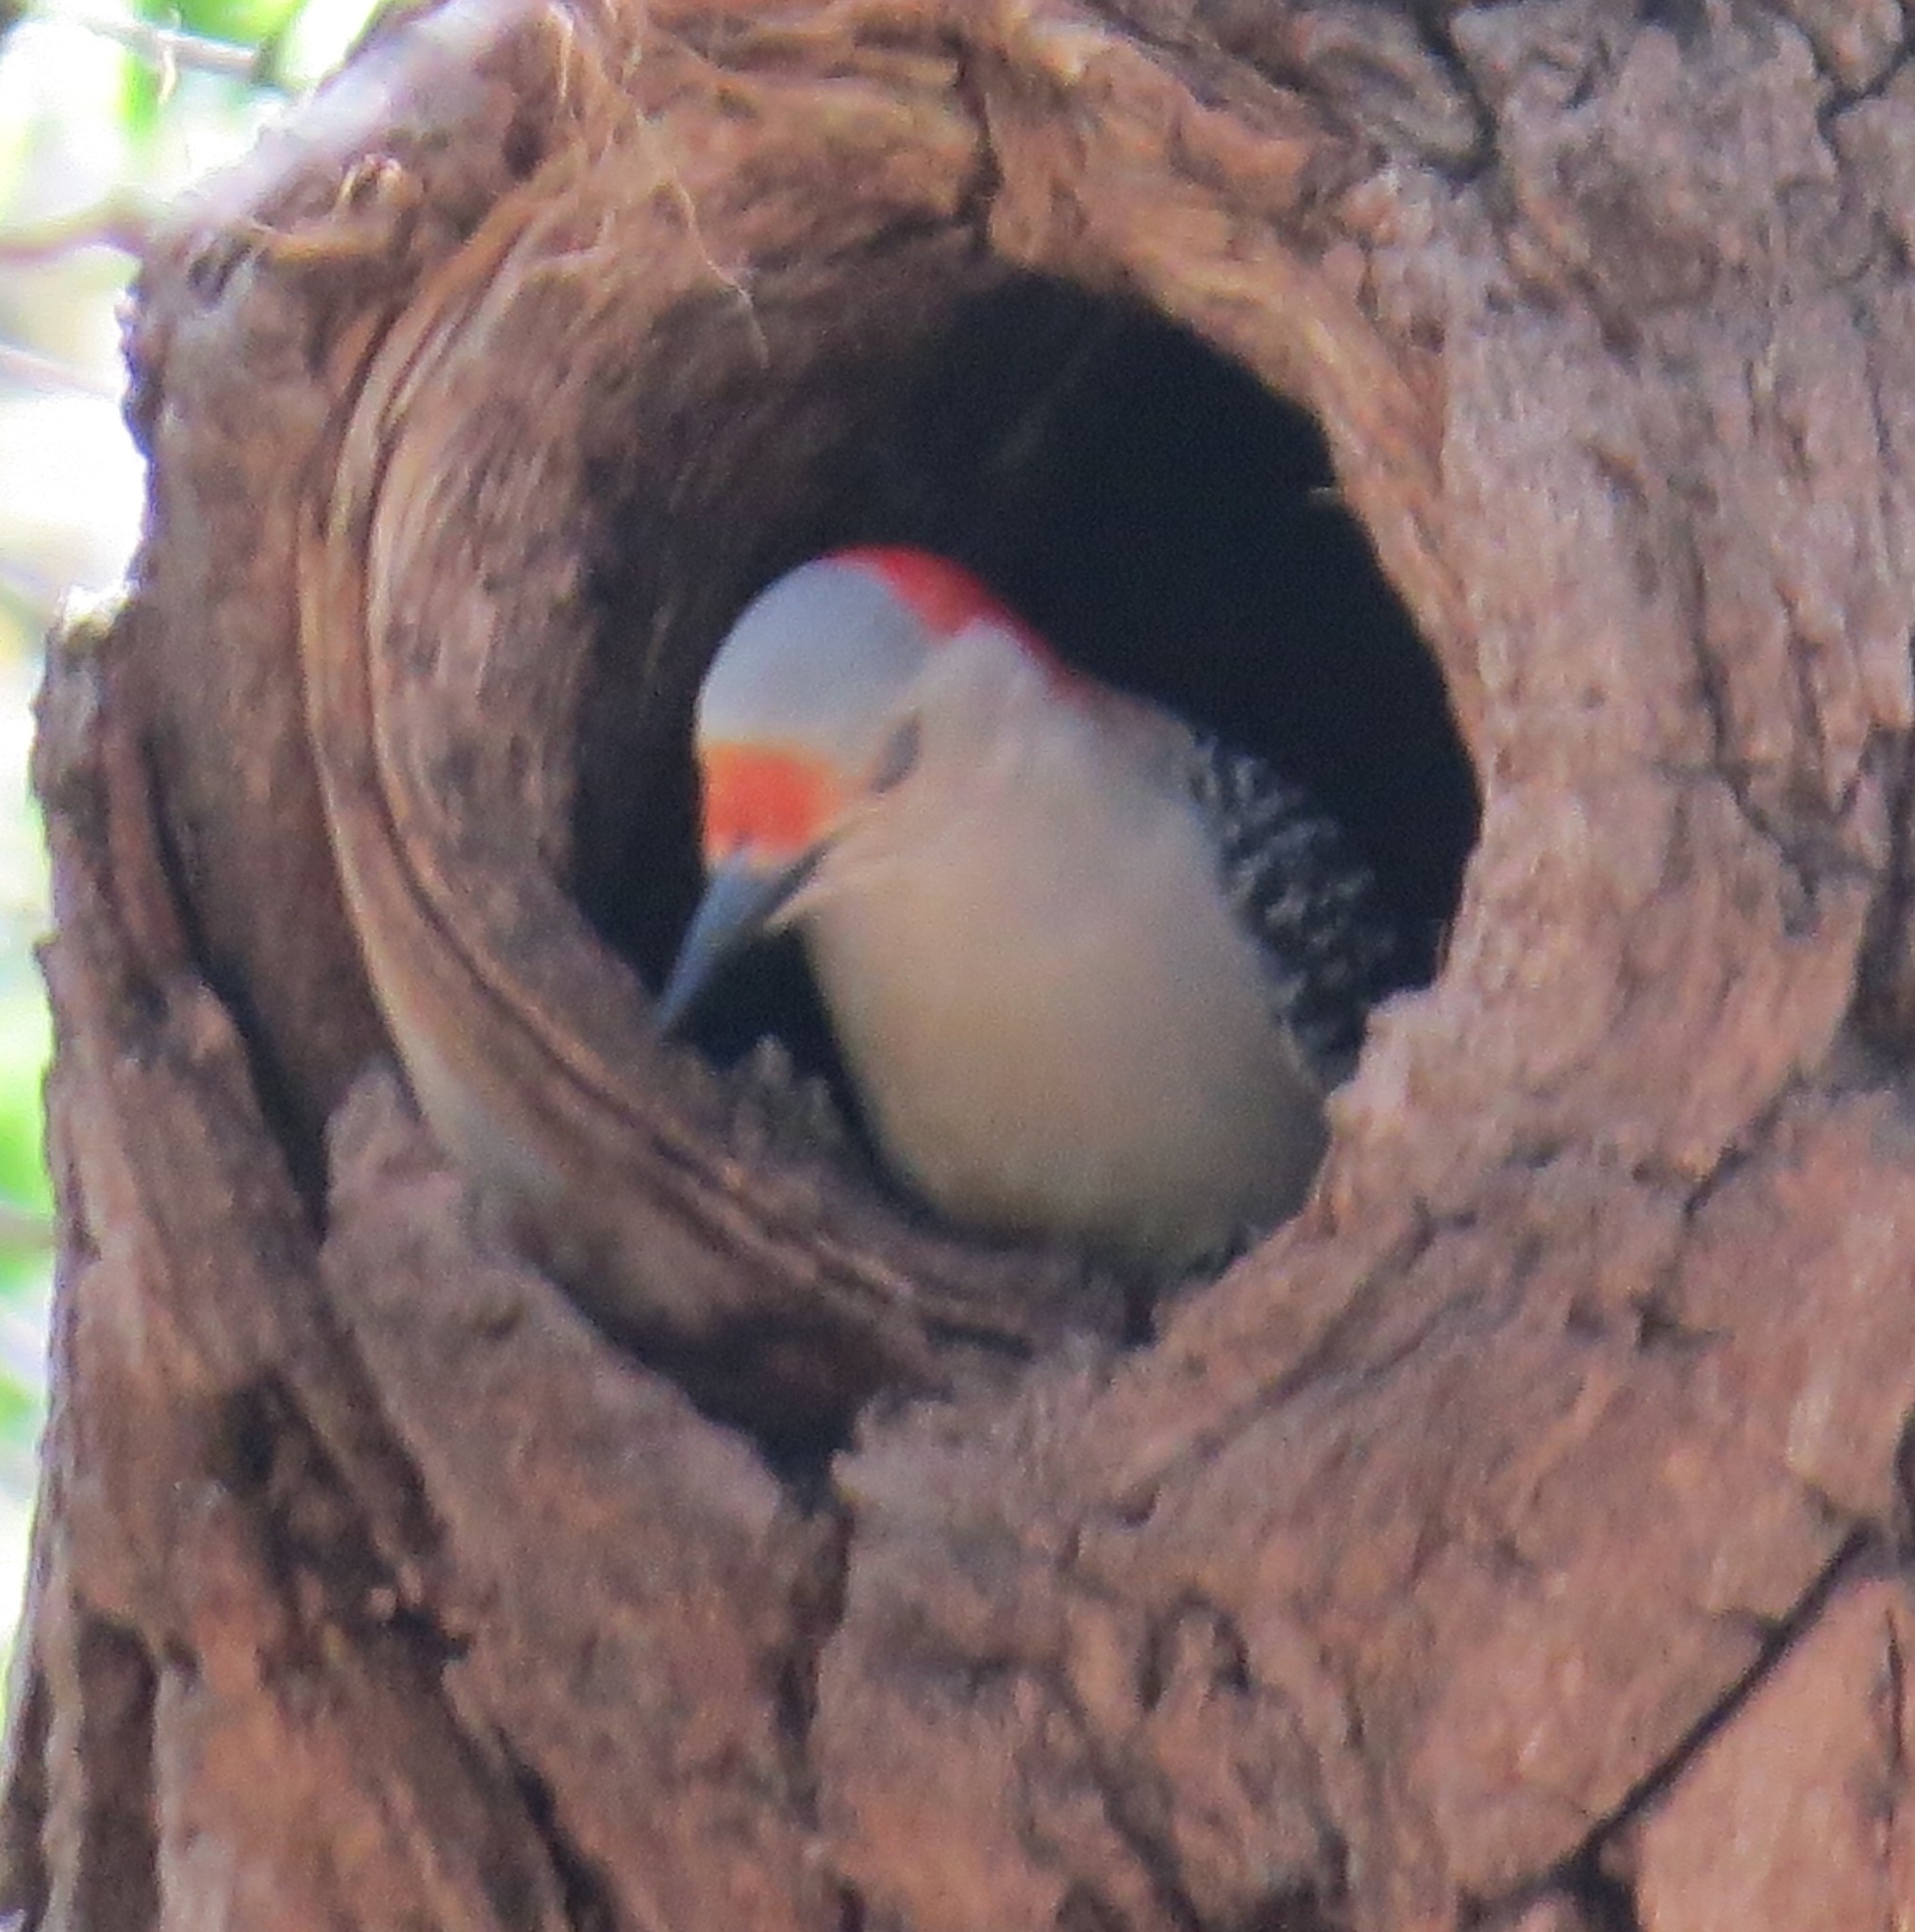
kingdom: Animalia
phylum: Chordata
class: Aves
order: Piciformes
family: Picidae
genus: Melanerpes
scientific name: Melanerpes carolinus
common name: Red-bellied woodpecker
